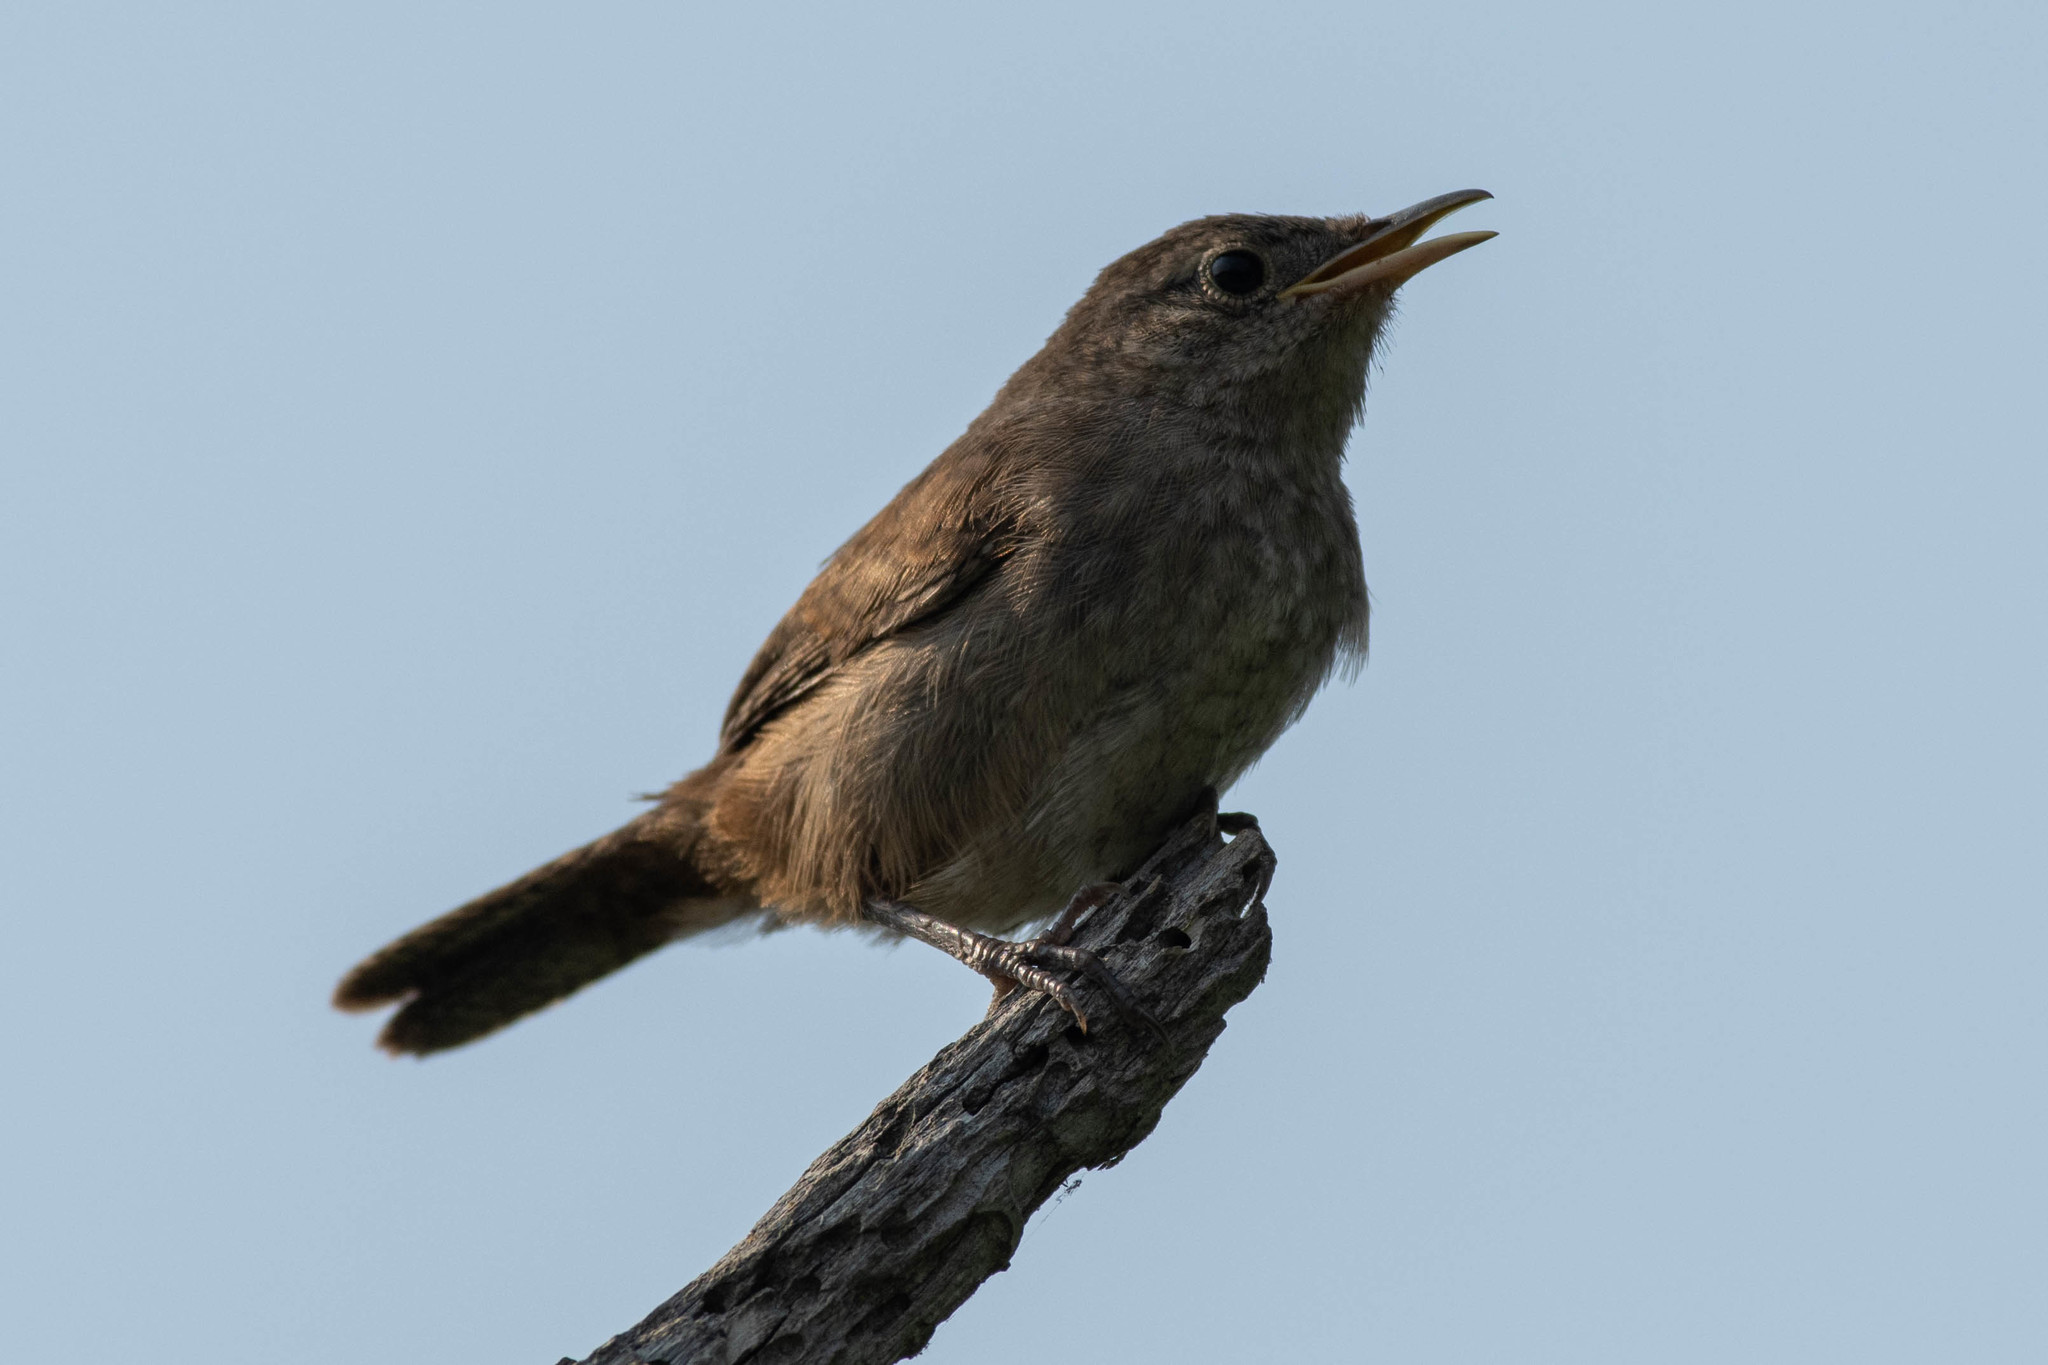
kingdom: Animalia
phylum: Chordata
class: Aves
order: Passeriformes
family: Troglodytidae
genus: Troglodytes
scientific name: Troglodytes aedon
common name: House wren
